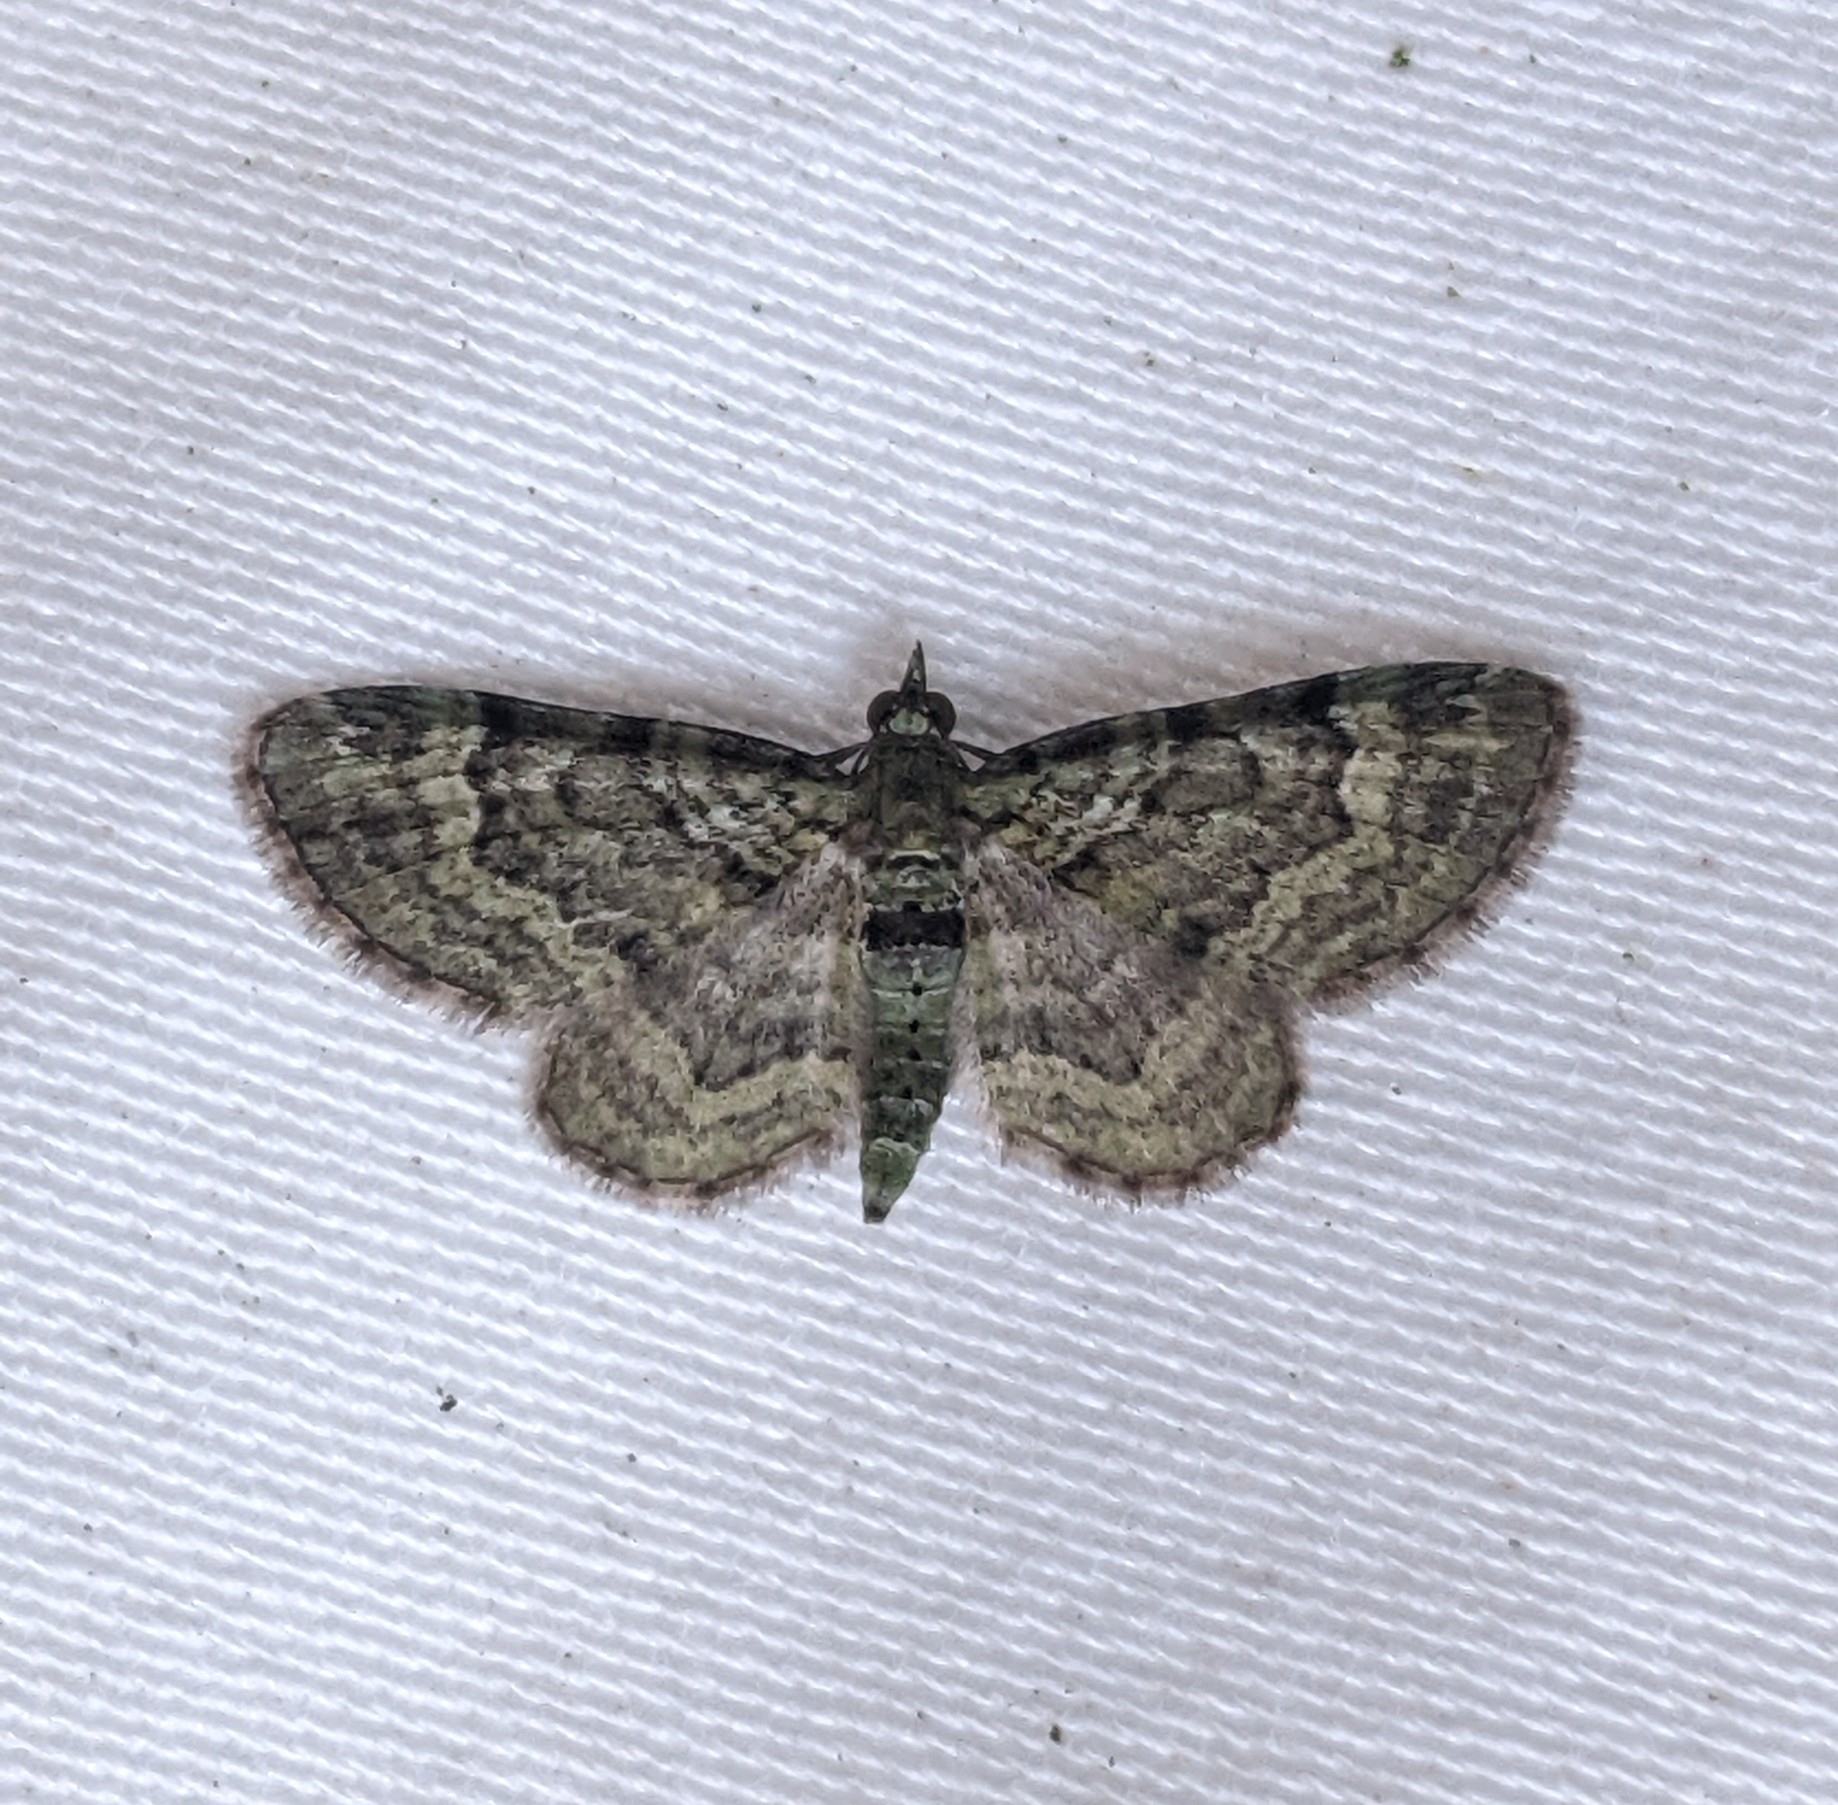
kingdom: Animalia
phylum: Arthropoda
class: Insecta
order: Lepidoptera
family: Geometridae
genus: Pasiphila
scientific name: Pasiphila rectangulata
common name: Green pug
